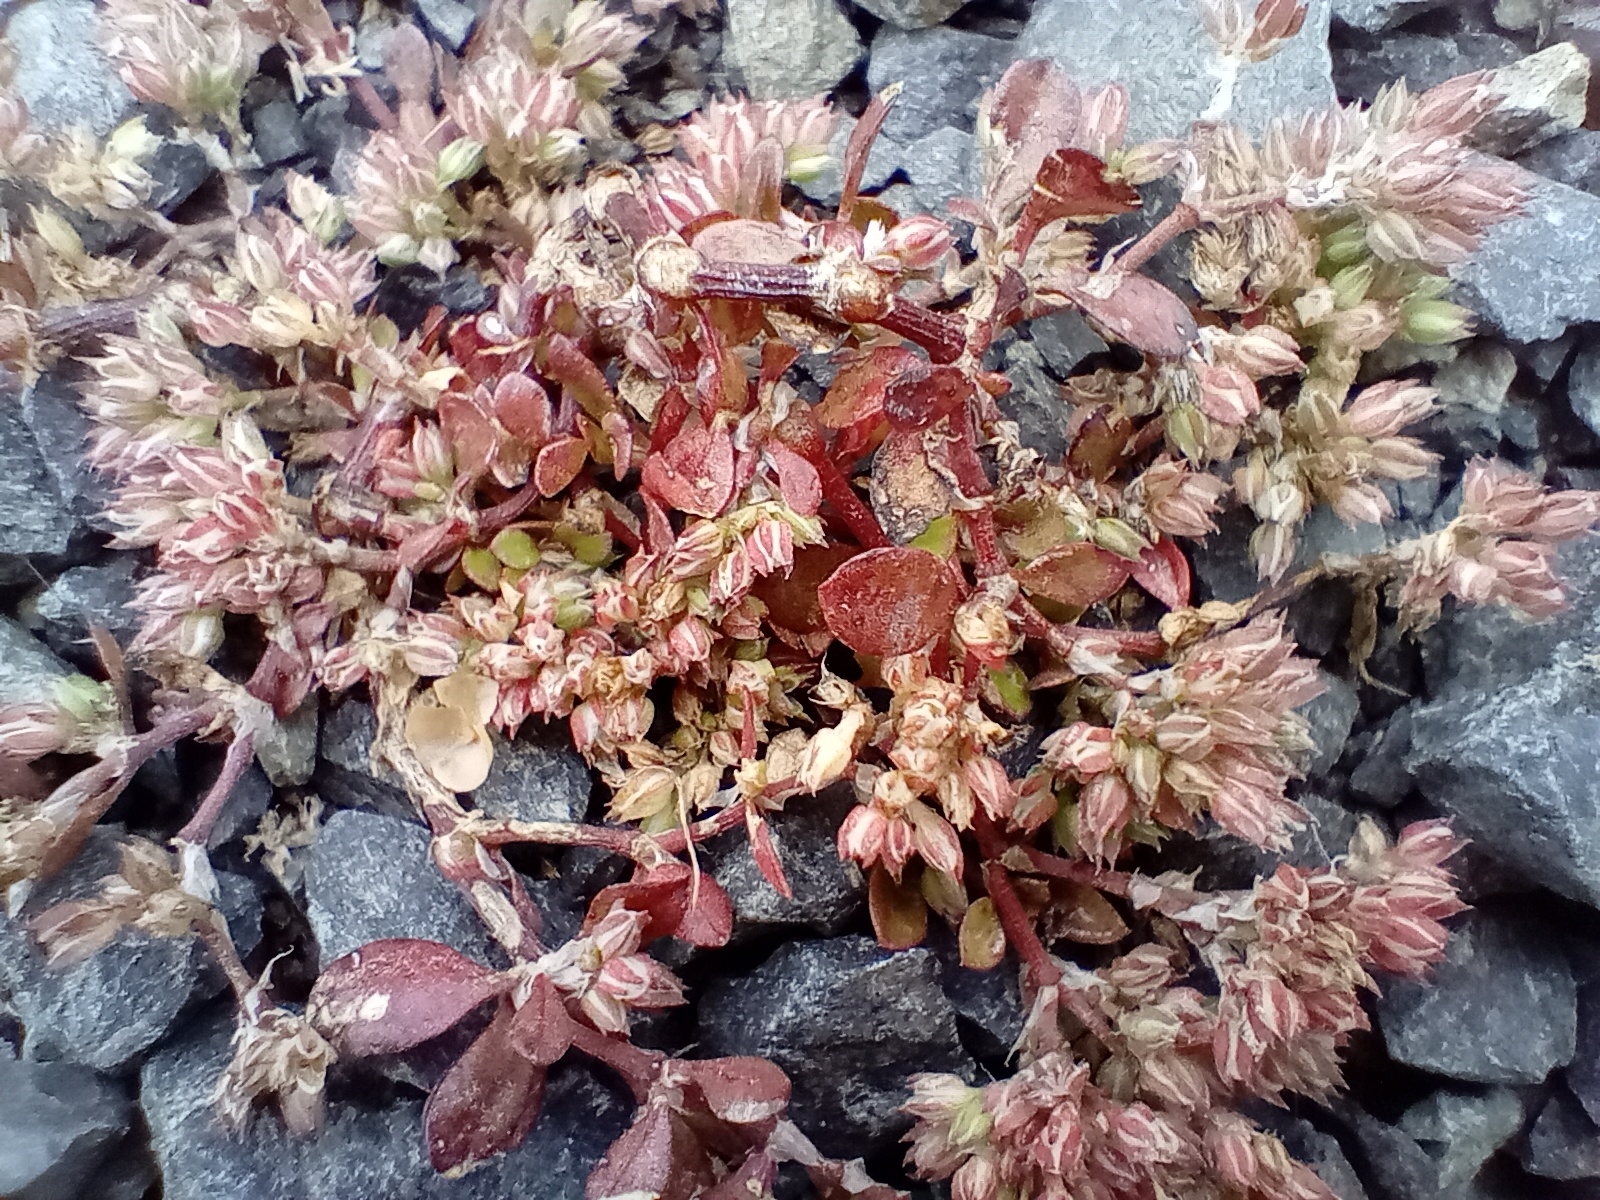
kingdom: Plantae
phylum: Tracheophyta
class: Magnoliopsida
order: Caryophyllales
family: Caryophyllaceae
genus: Polycarpon
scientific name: Polycarpon tetraphyllum
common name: Four-leaved all-seed
